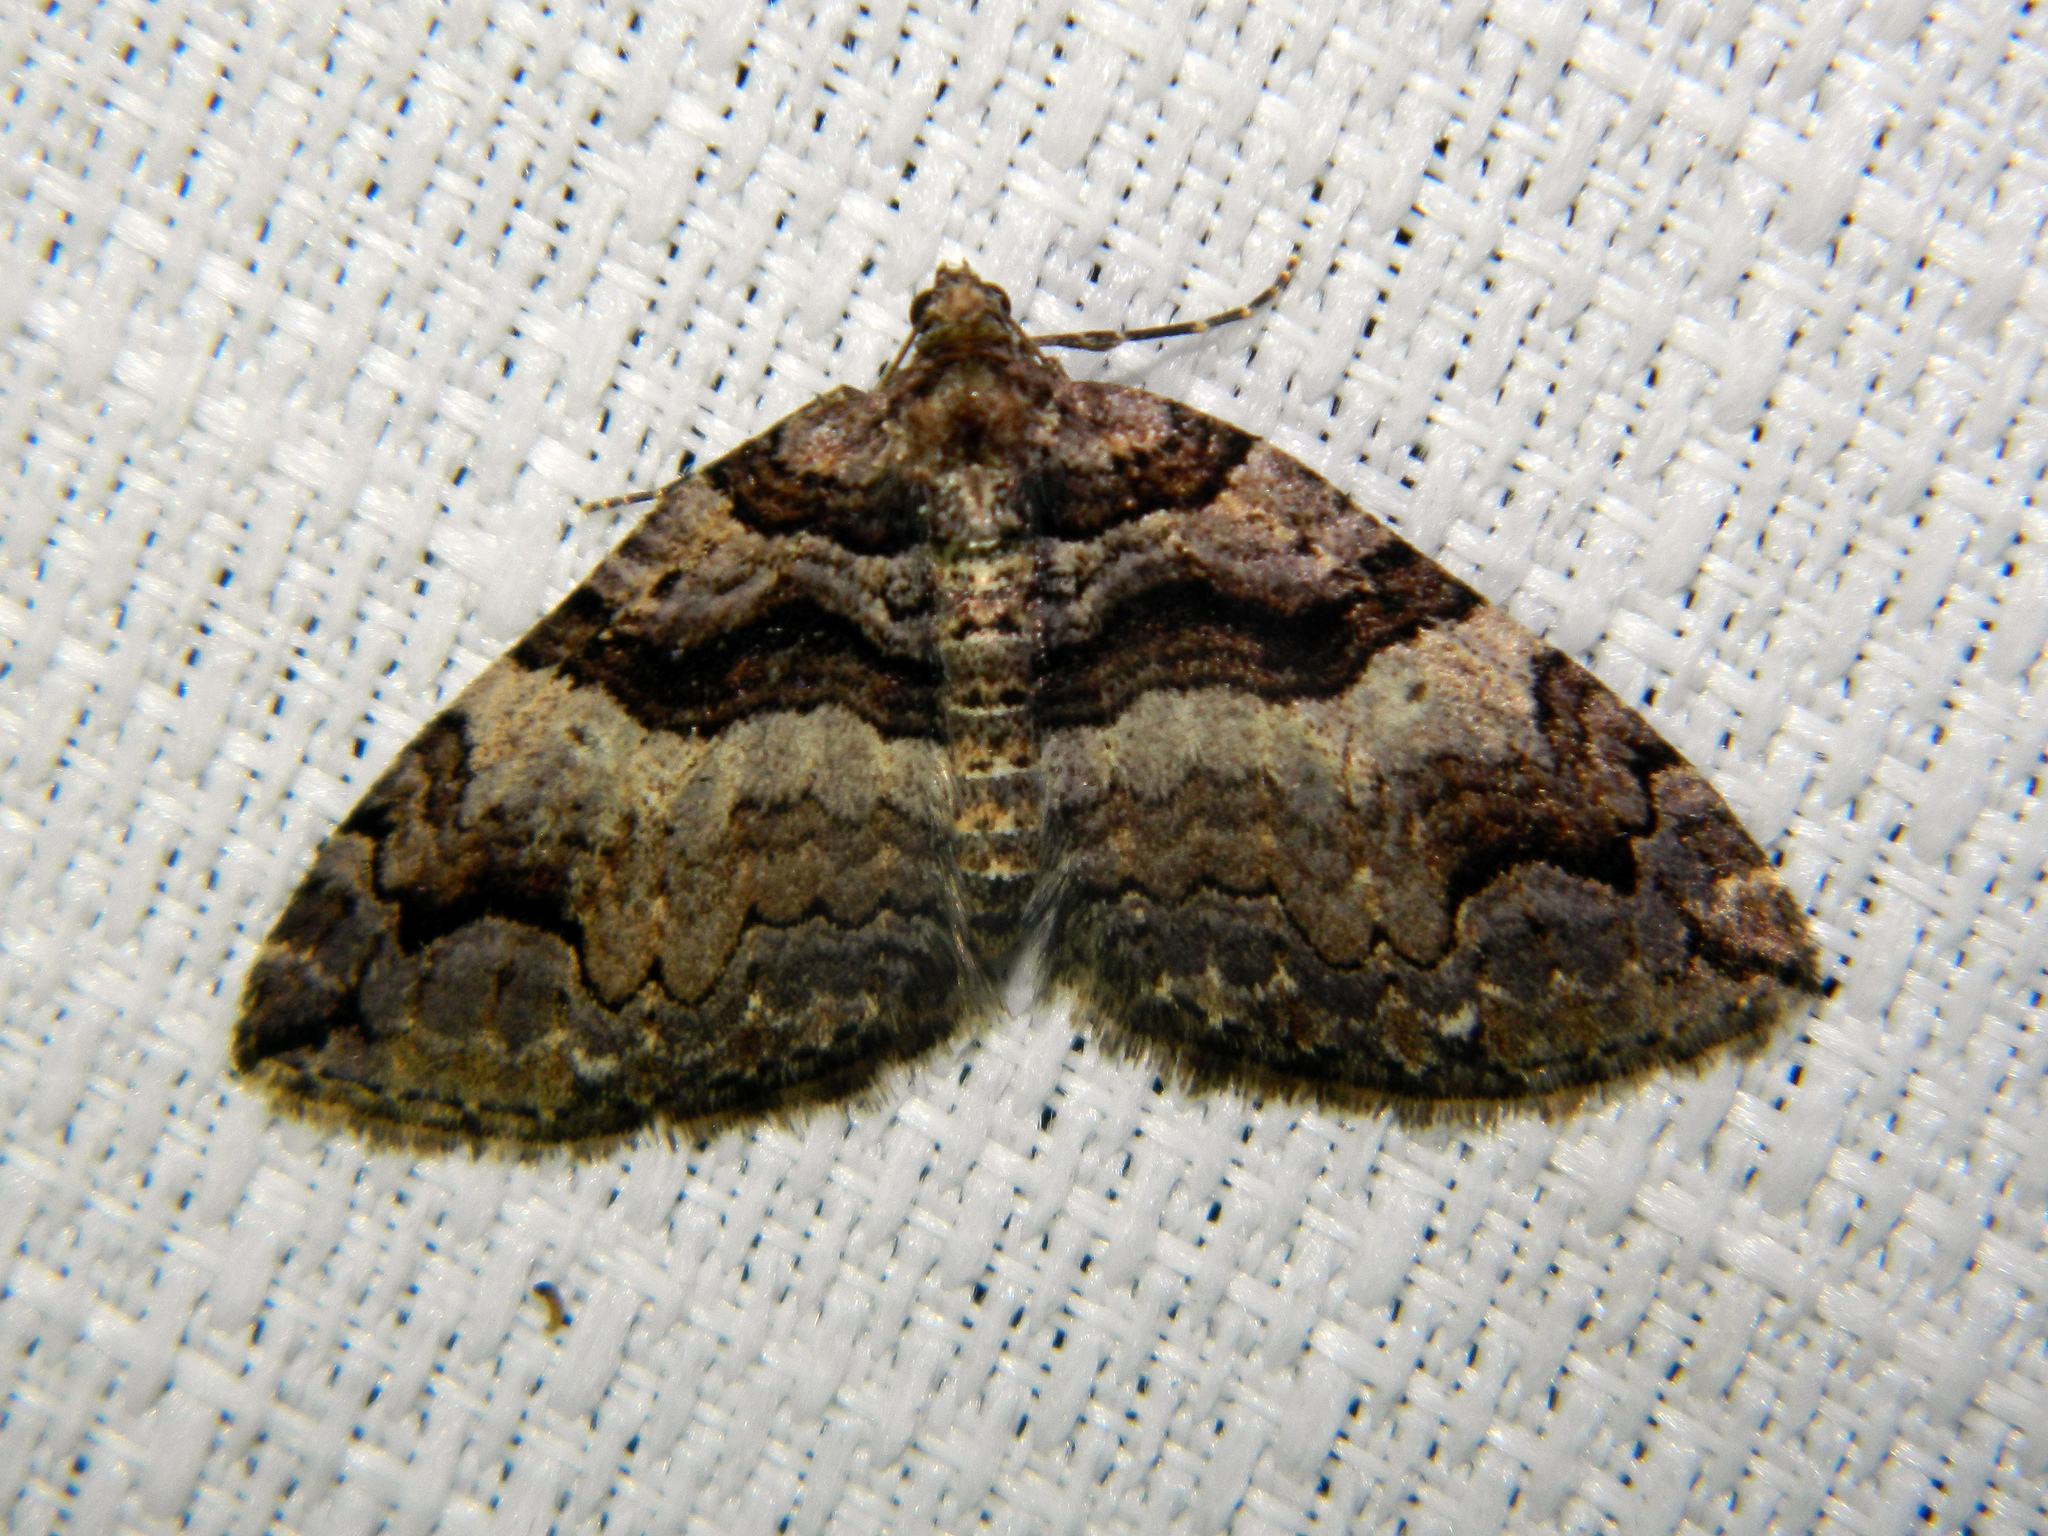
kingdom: Animalia
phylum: Arthropoda
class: Insecta
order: Lepidoptera
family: Geometridae
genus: Anticlea
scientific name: Anticlea vasiliata
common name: Variable carpet
